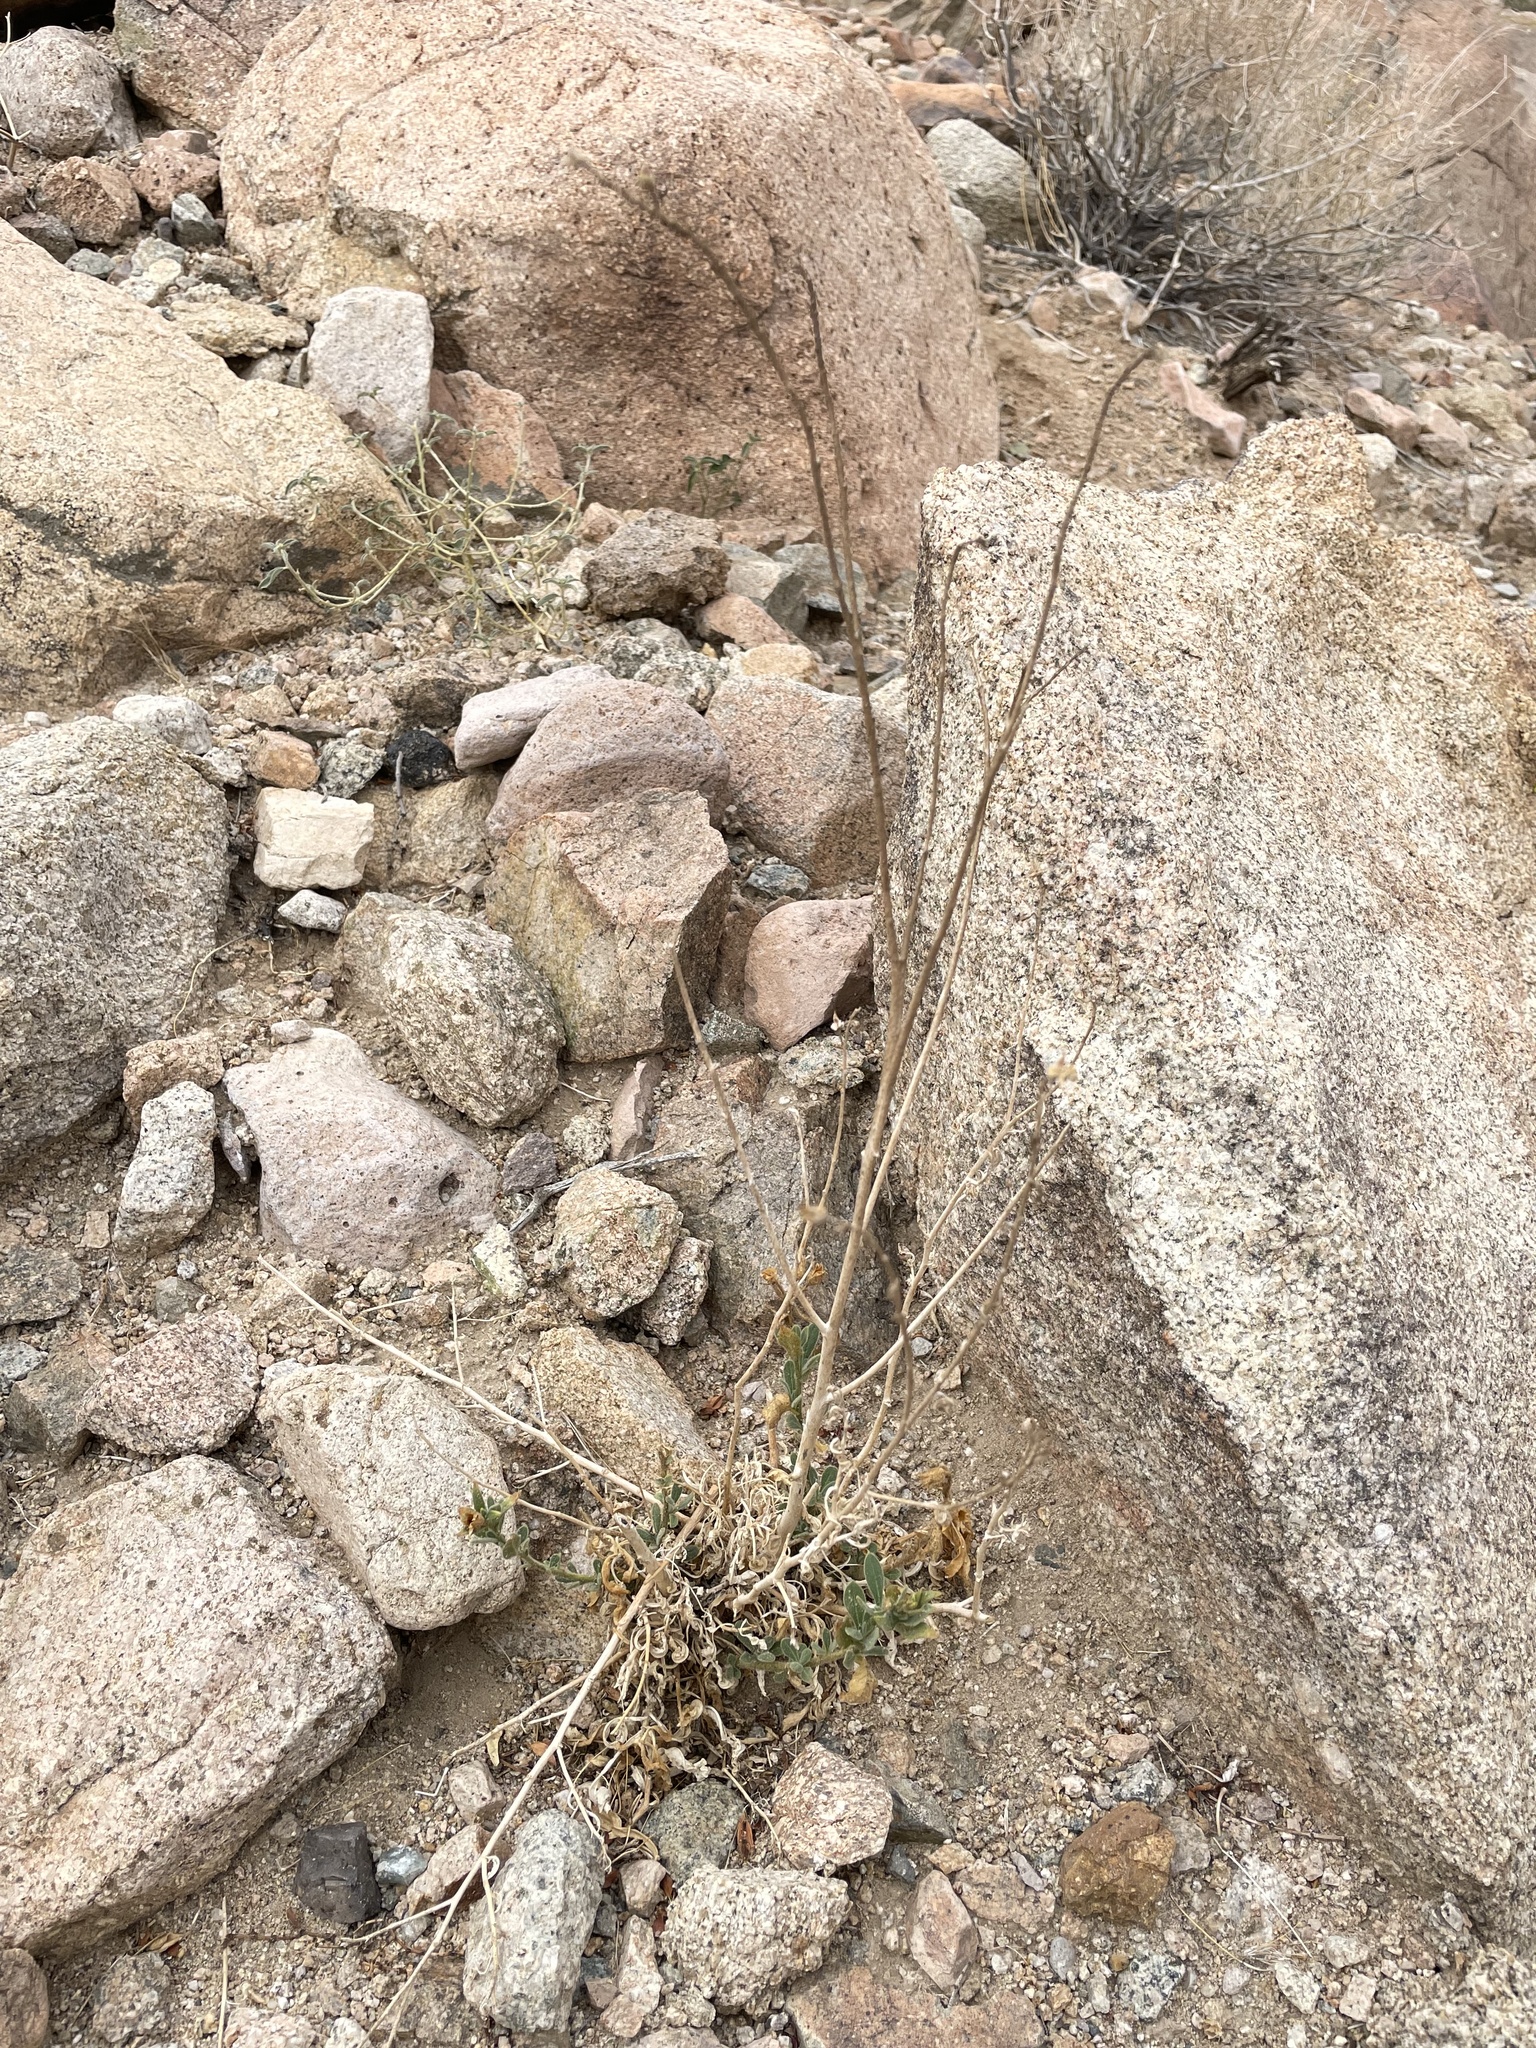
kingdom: Plantae
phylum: Tracheophyta
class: Magnoliopsida
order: Solanales
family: Solanaceae
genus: Nicotiana
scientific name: Nicotiana obtusifolia
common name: Desert tobacco
